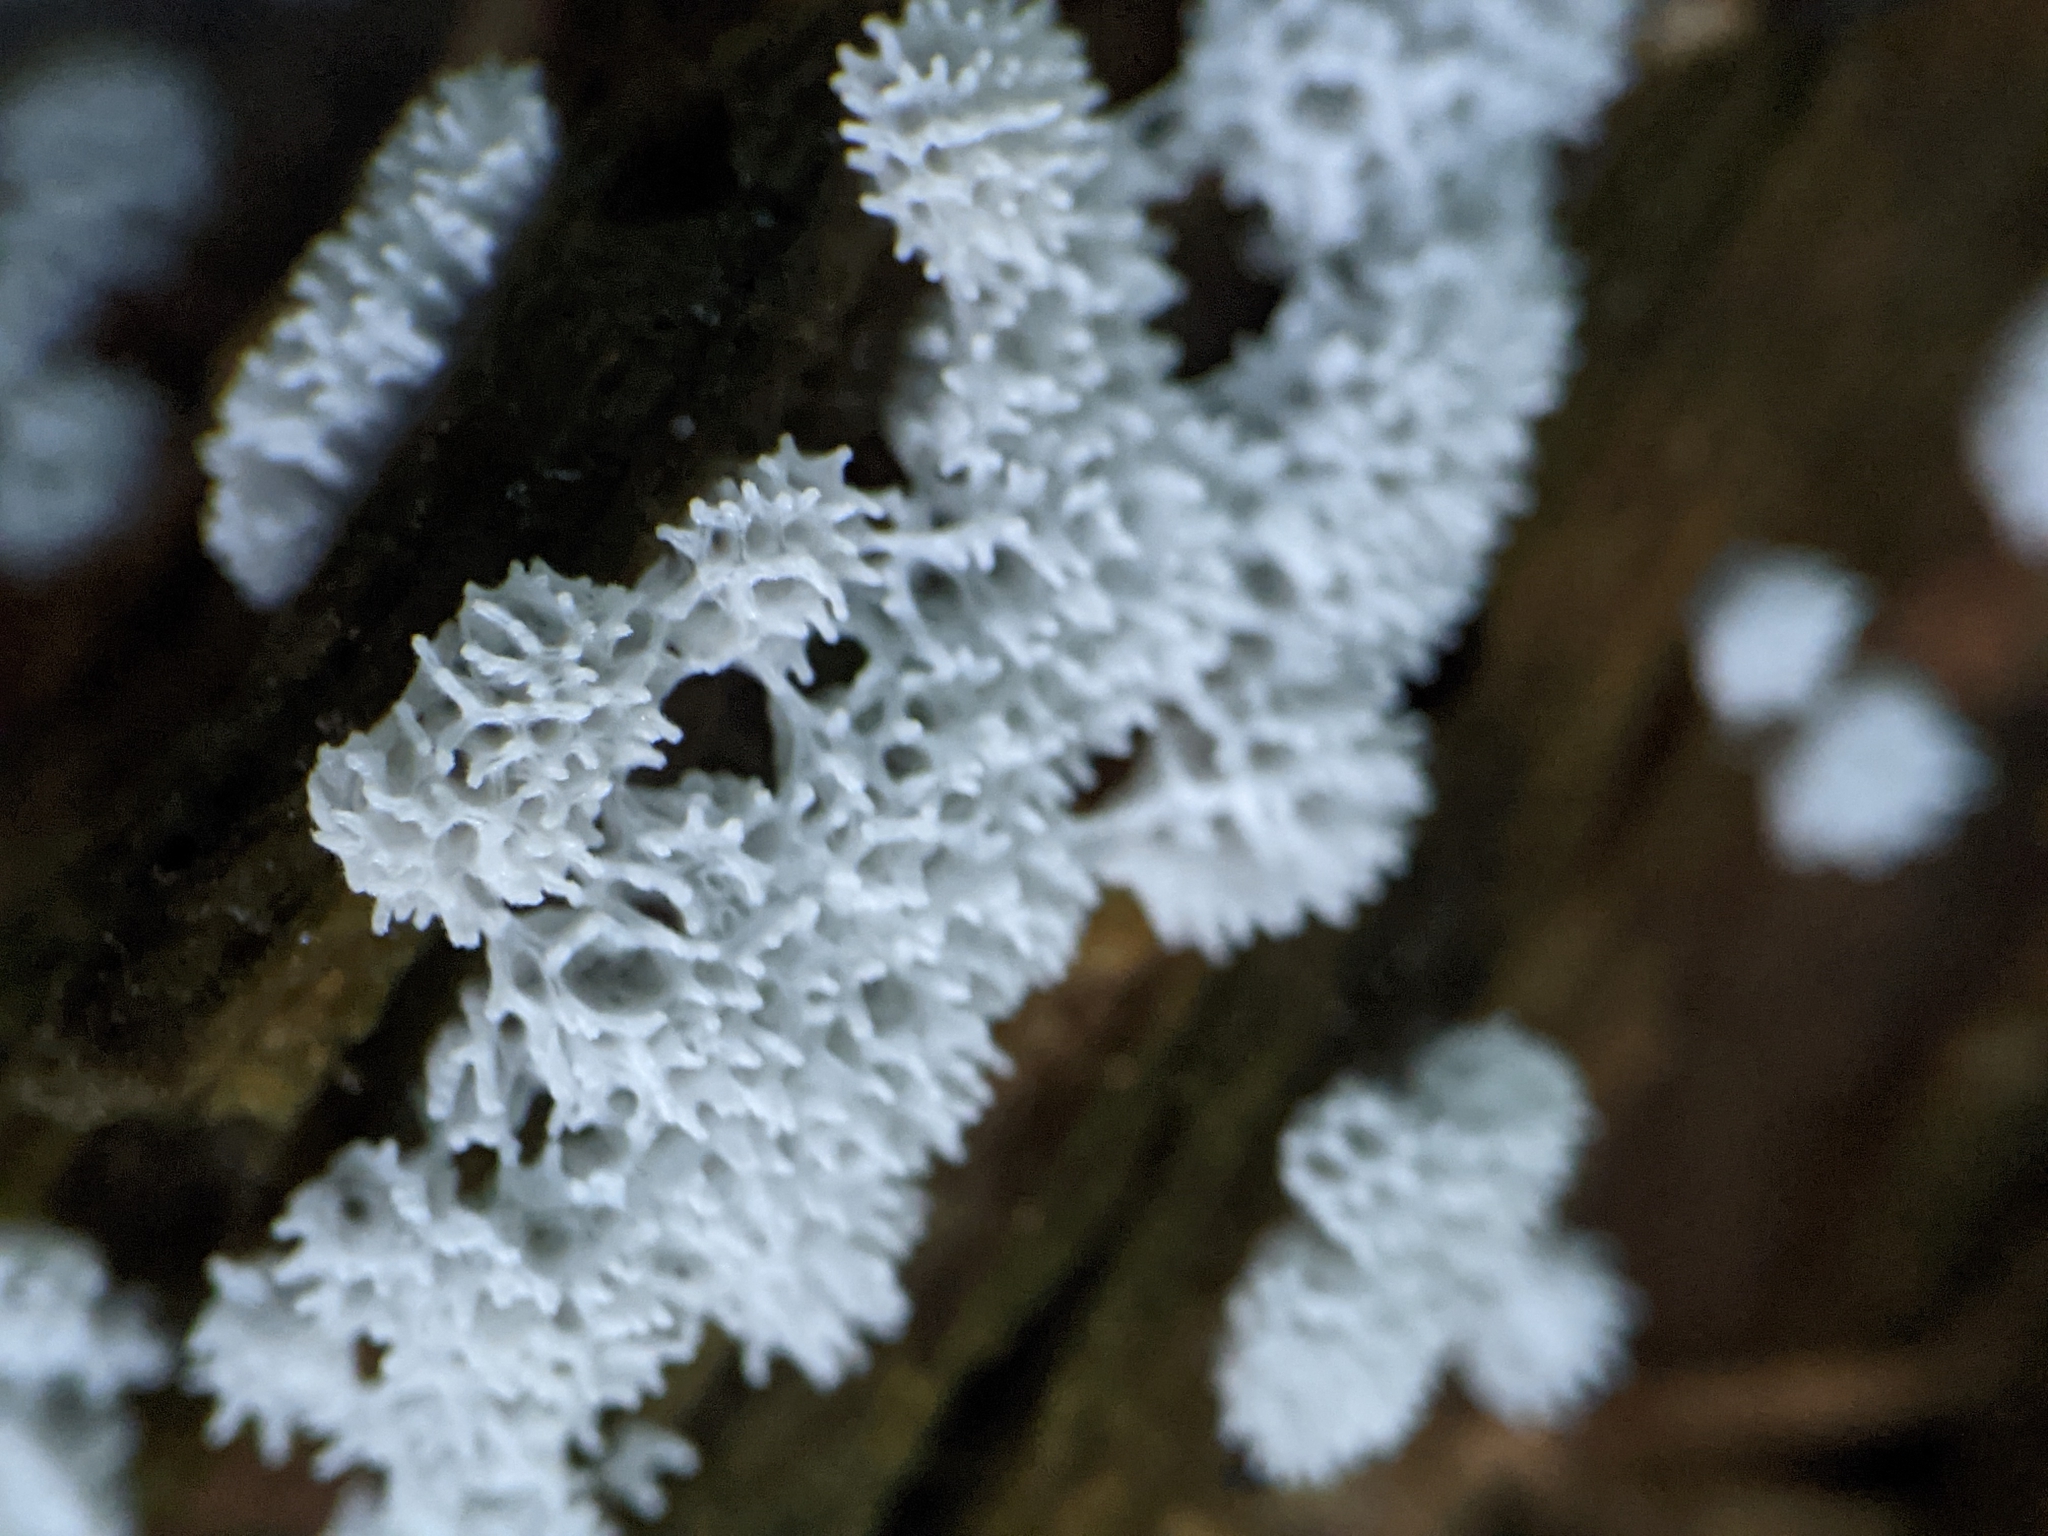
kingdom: Protozoa
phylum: Mycetozoa
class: Protosteliomycetes
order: Ceratiomyxales
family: Ceratiomyxaceae
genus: Ceratiomyxa
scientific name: Ceratiomyxa fruticulosa
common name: Honeycomb coral slime mold
